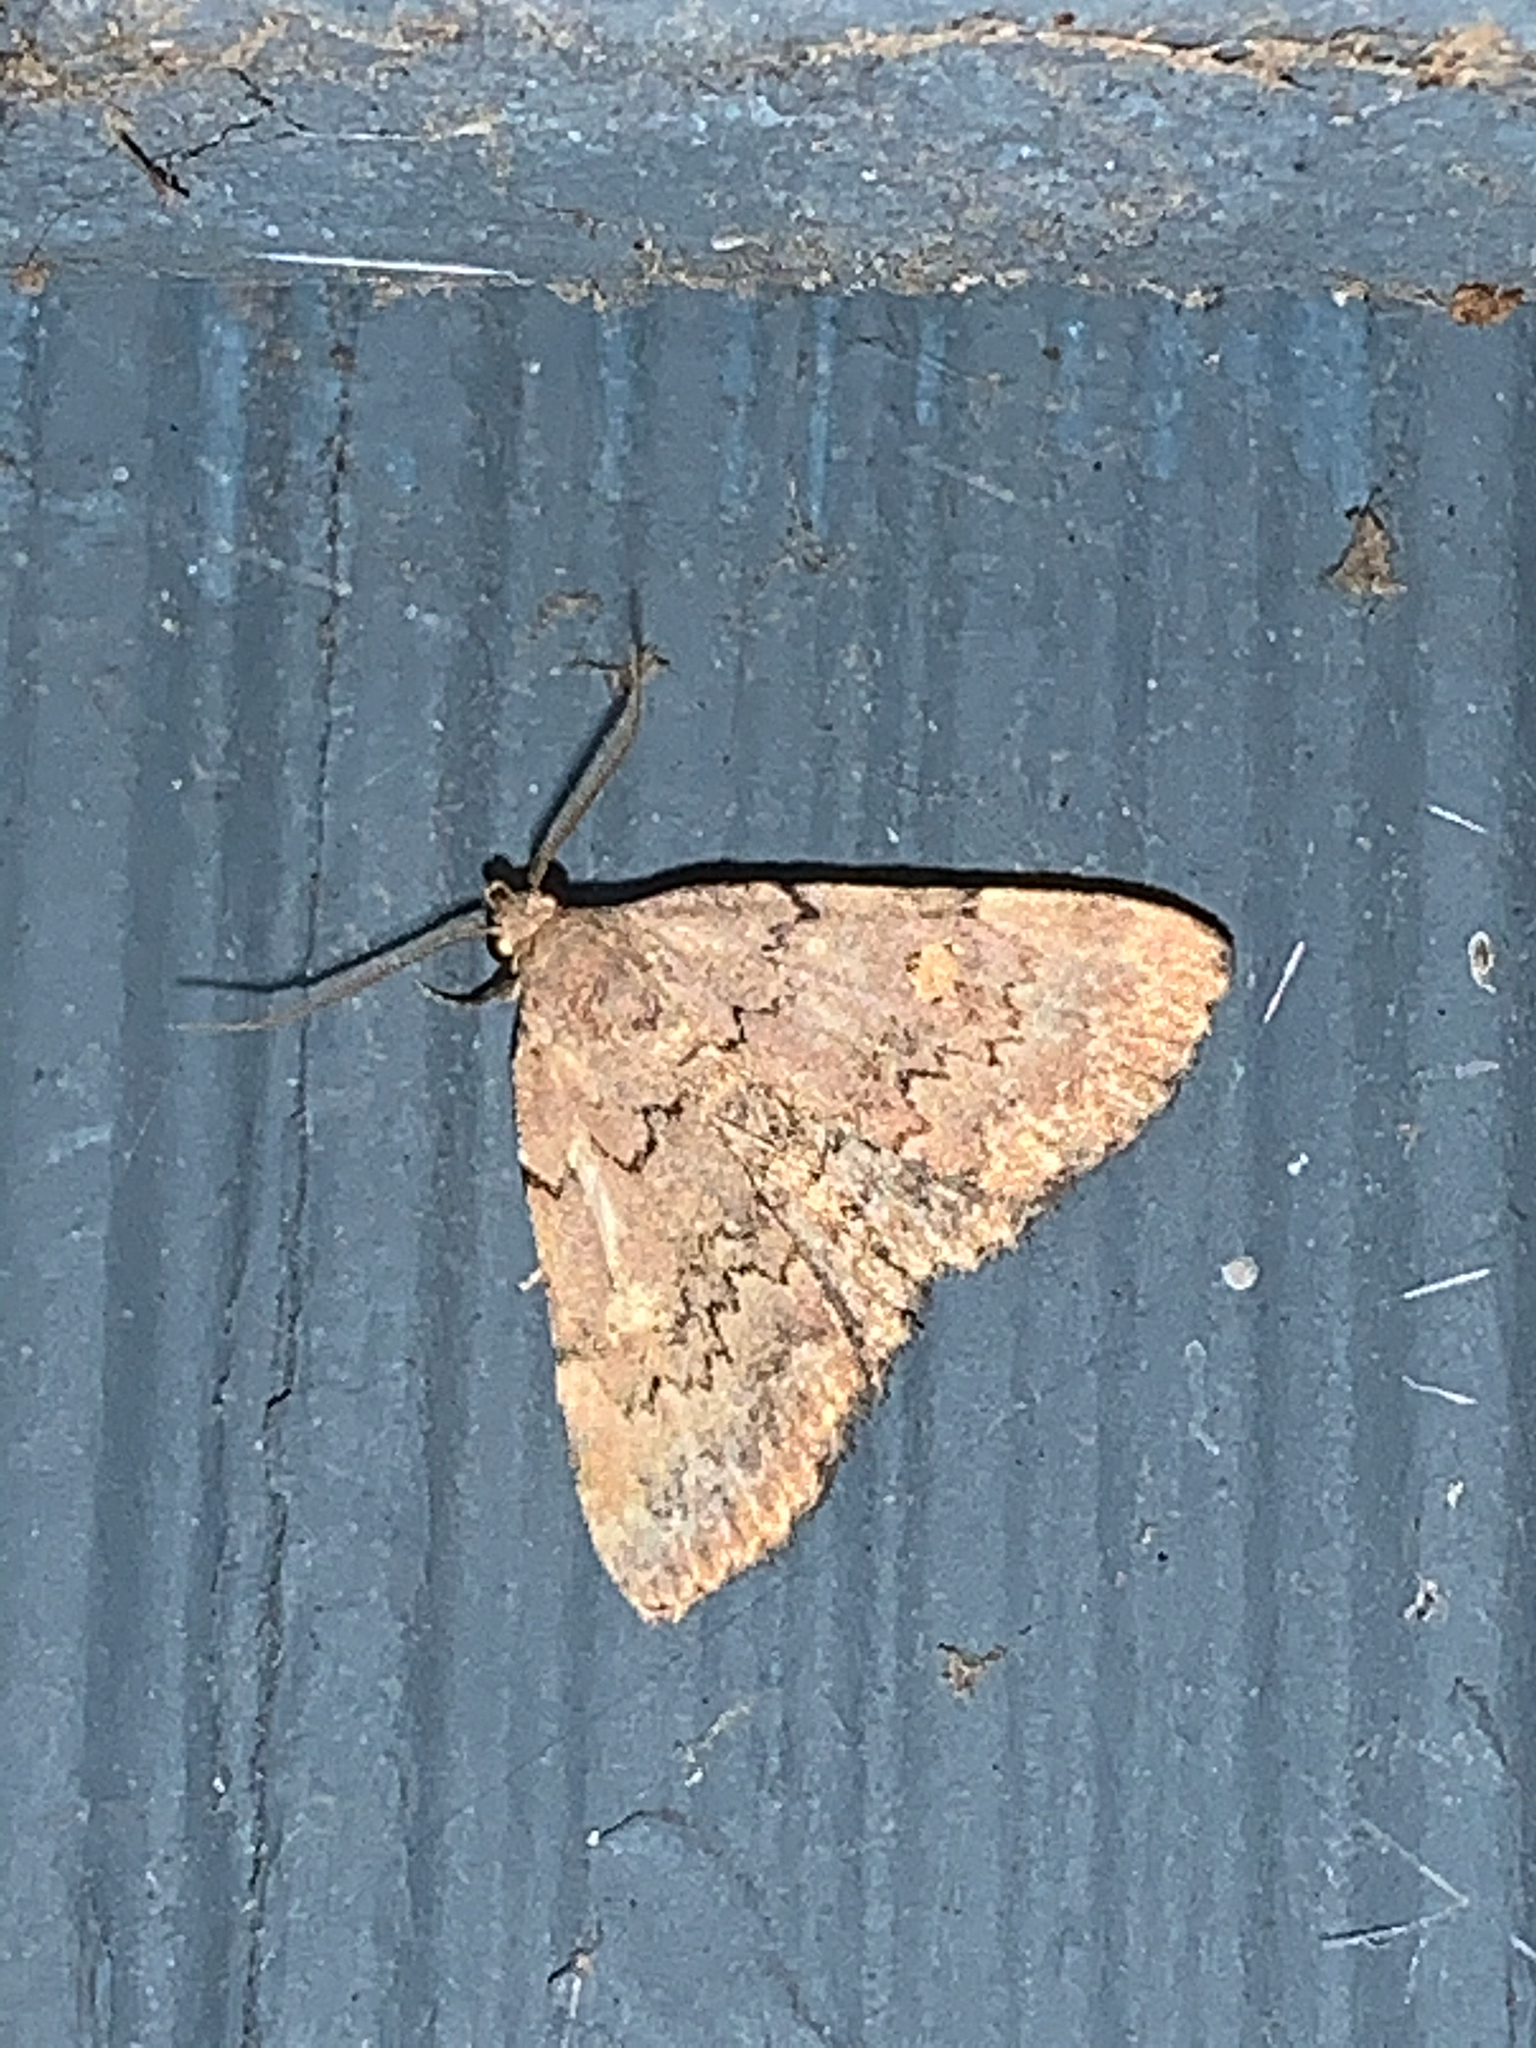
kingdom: Animalia
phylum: Arthropoda
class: Insecta
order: Lepidoptera
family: Erebidae
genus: Idia
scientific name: Idia aemula
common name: Common idia moth
